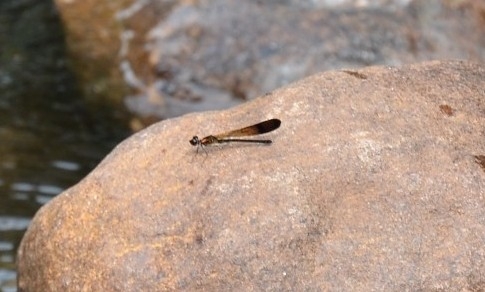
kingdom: Animalia
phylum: Arthropoda
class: Insecta
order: Odonata
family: Chlorocyphidae
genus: Heliocypha
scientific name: Heliocypha bisignata
